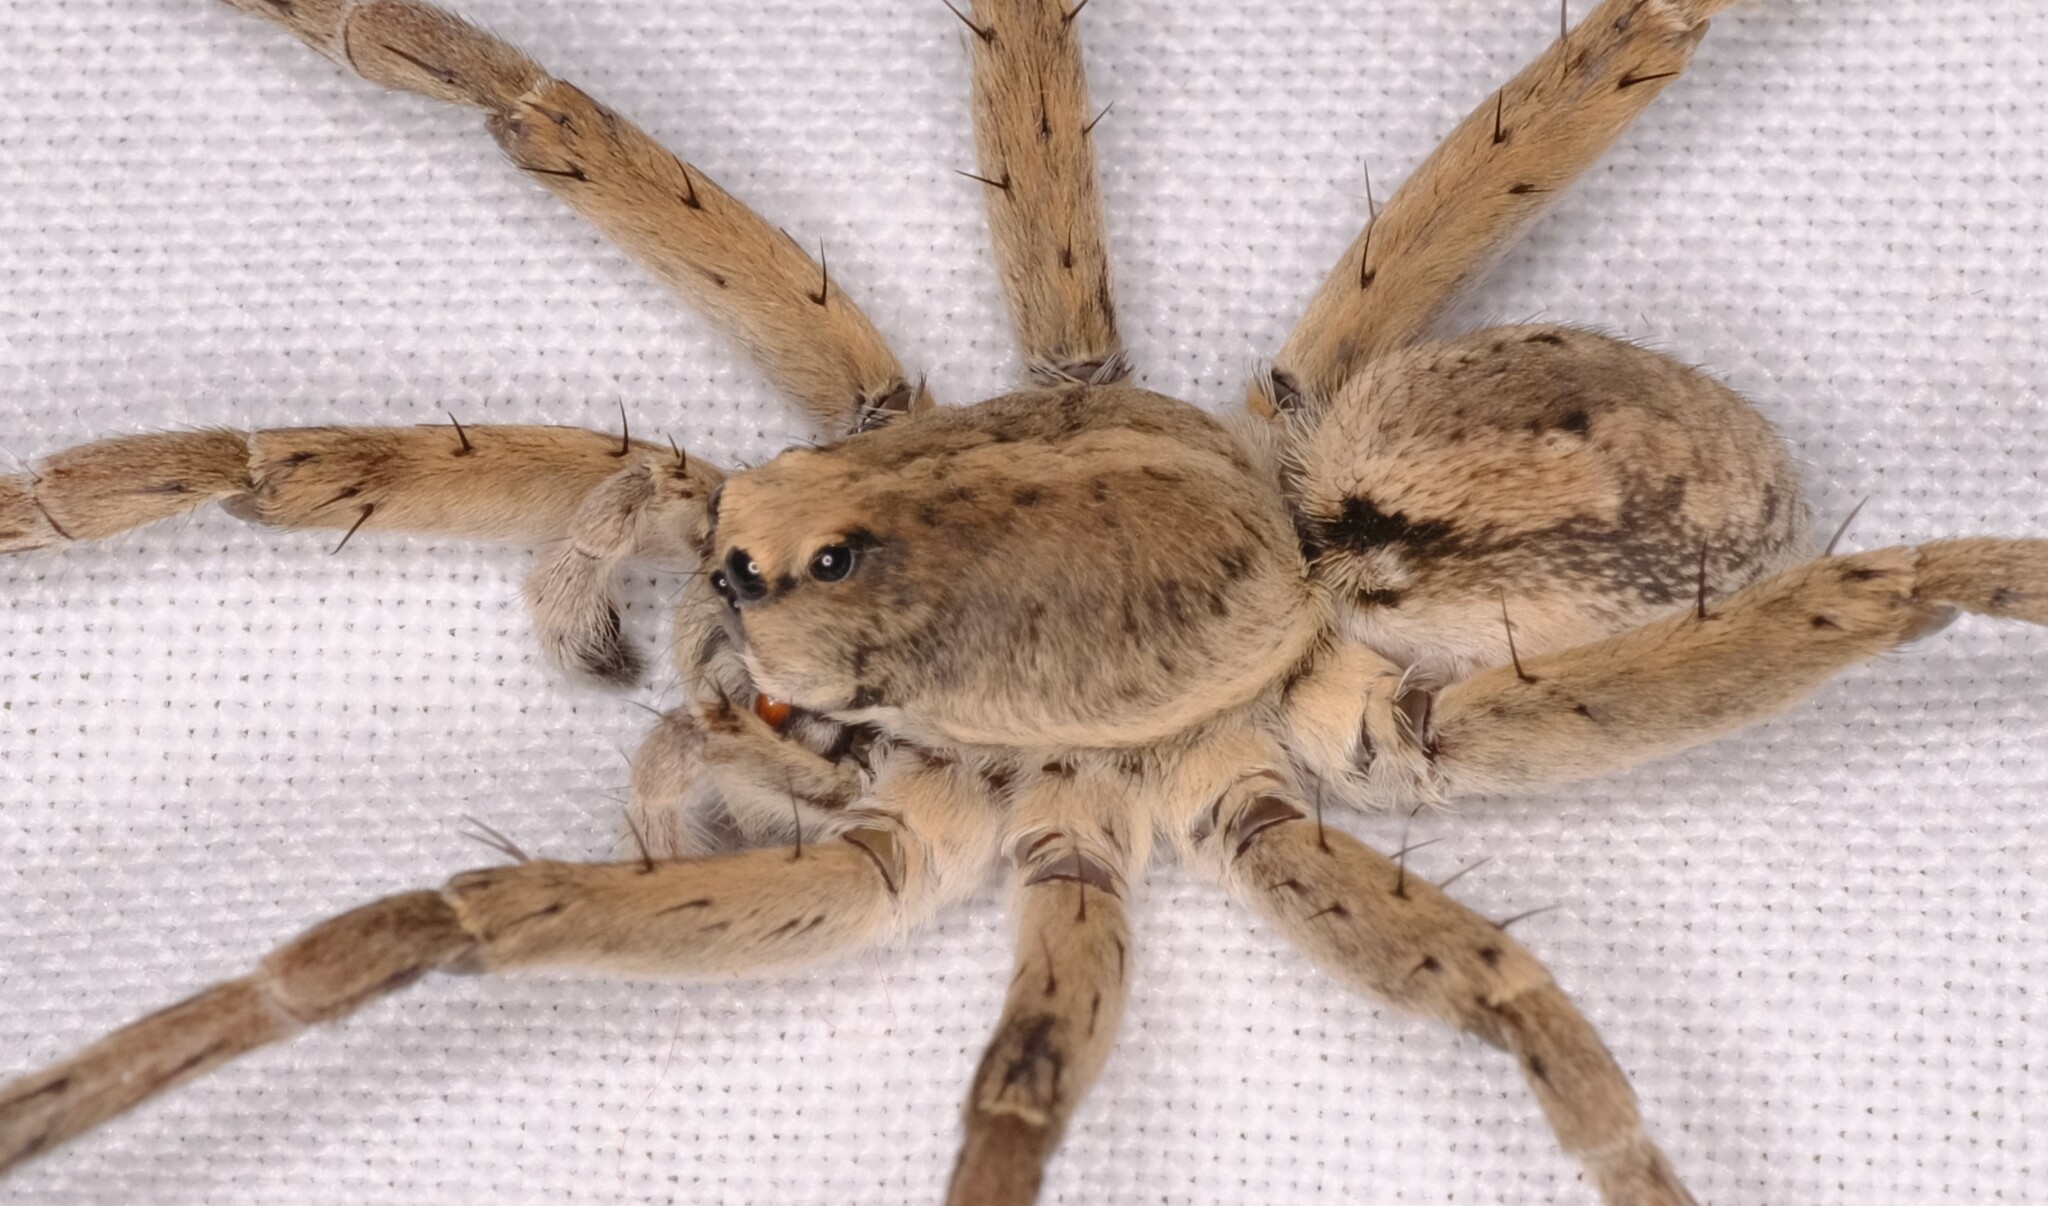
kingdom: Animalia
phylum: Arthropoda
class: Arachnida
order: Araneae
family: Lycosidae
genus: Portacosa
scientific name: Portacosa cinerea
